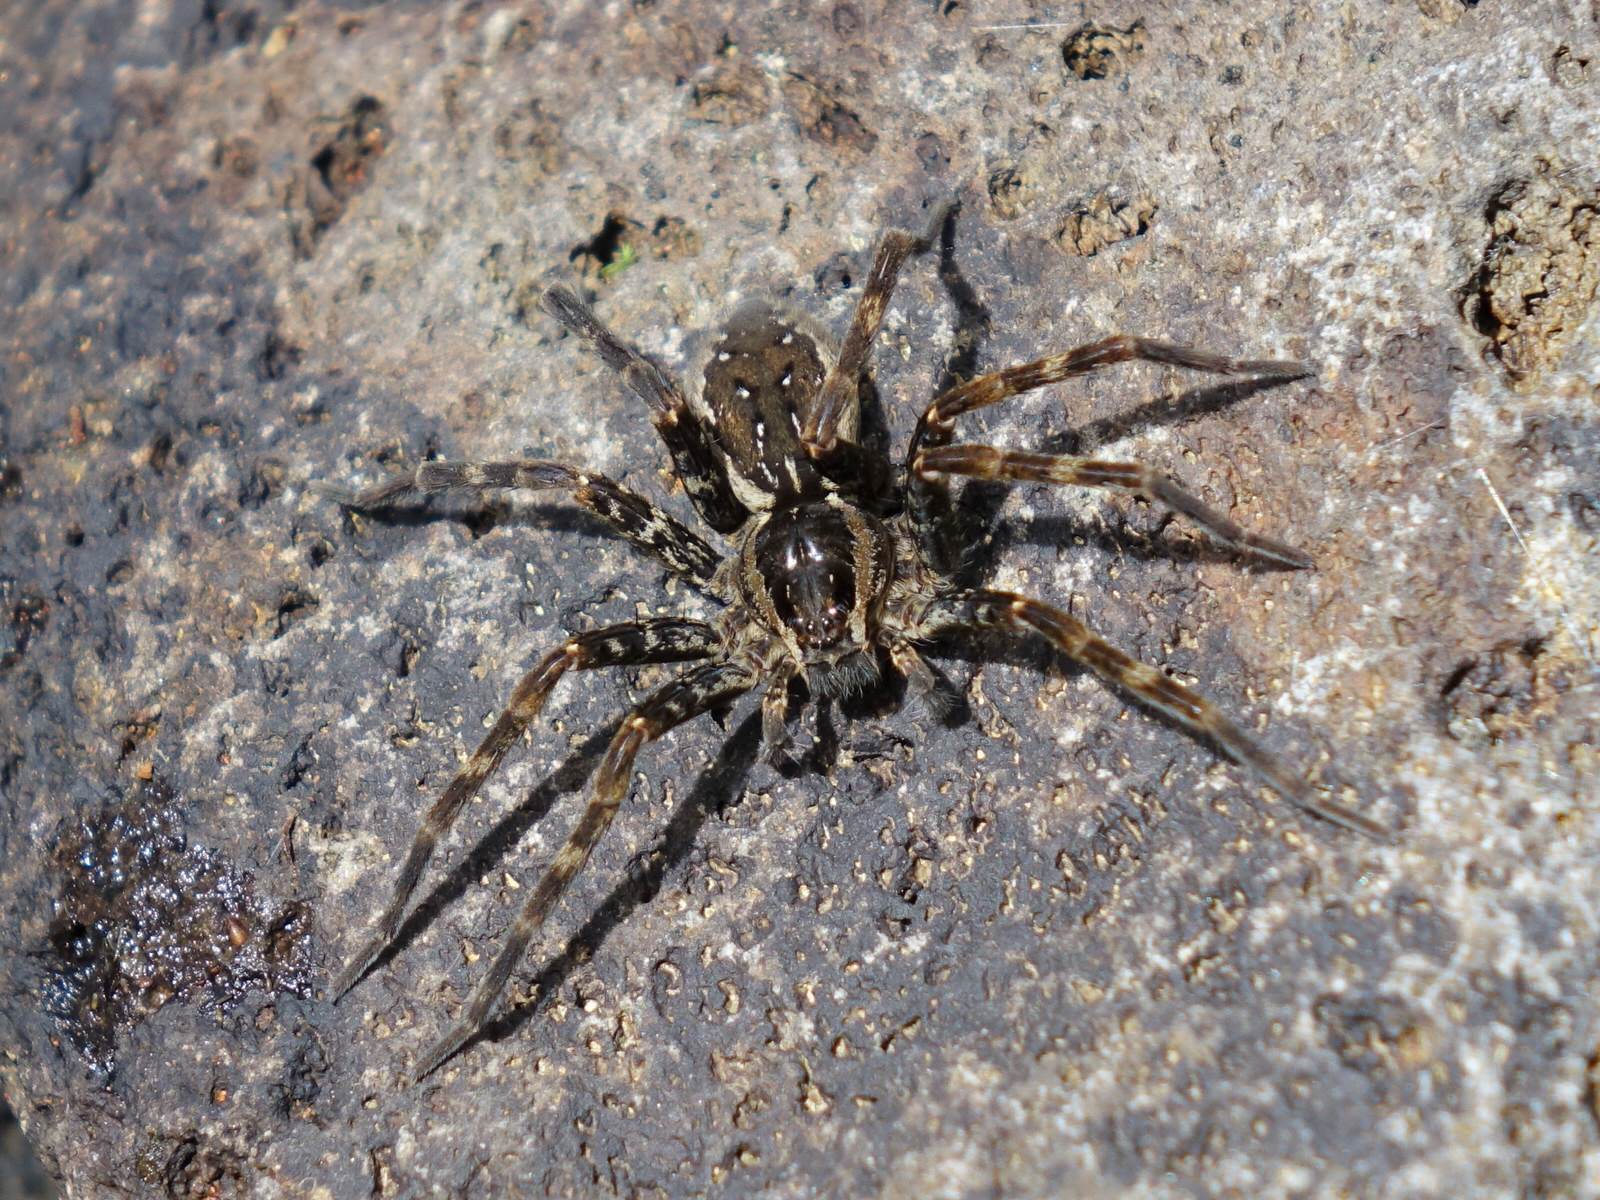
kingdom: Animalia
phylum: Arthropoda
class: Arachnida
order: Araneae
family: Pisauridae
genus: Dolomedes
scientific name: Dolomedes dondalei
